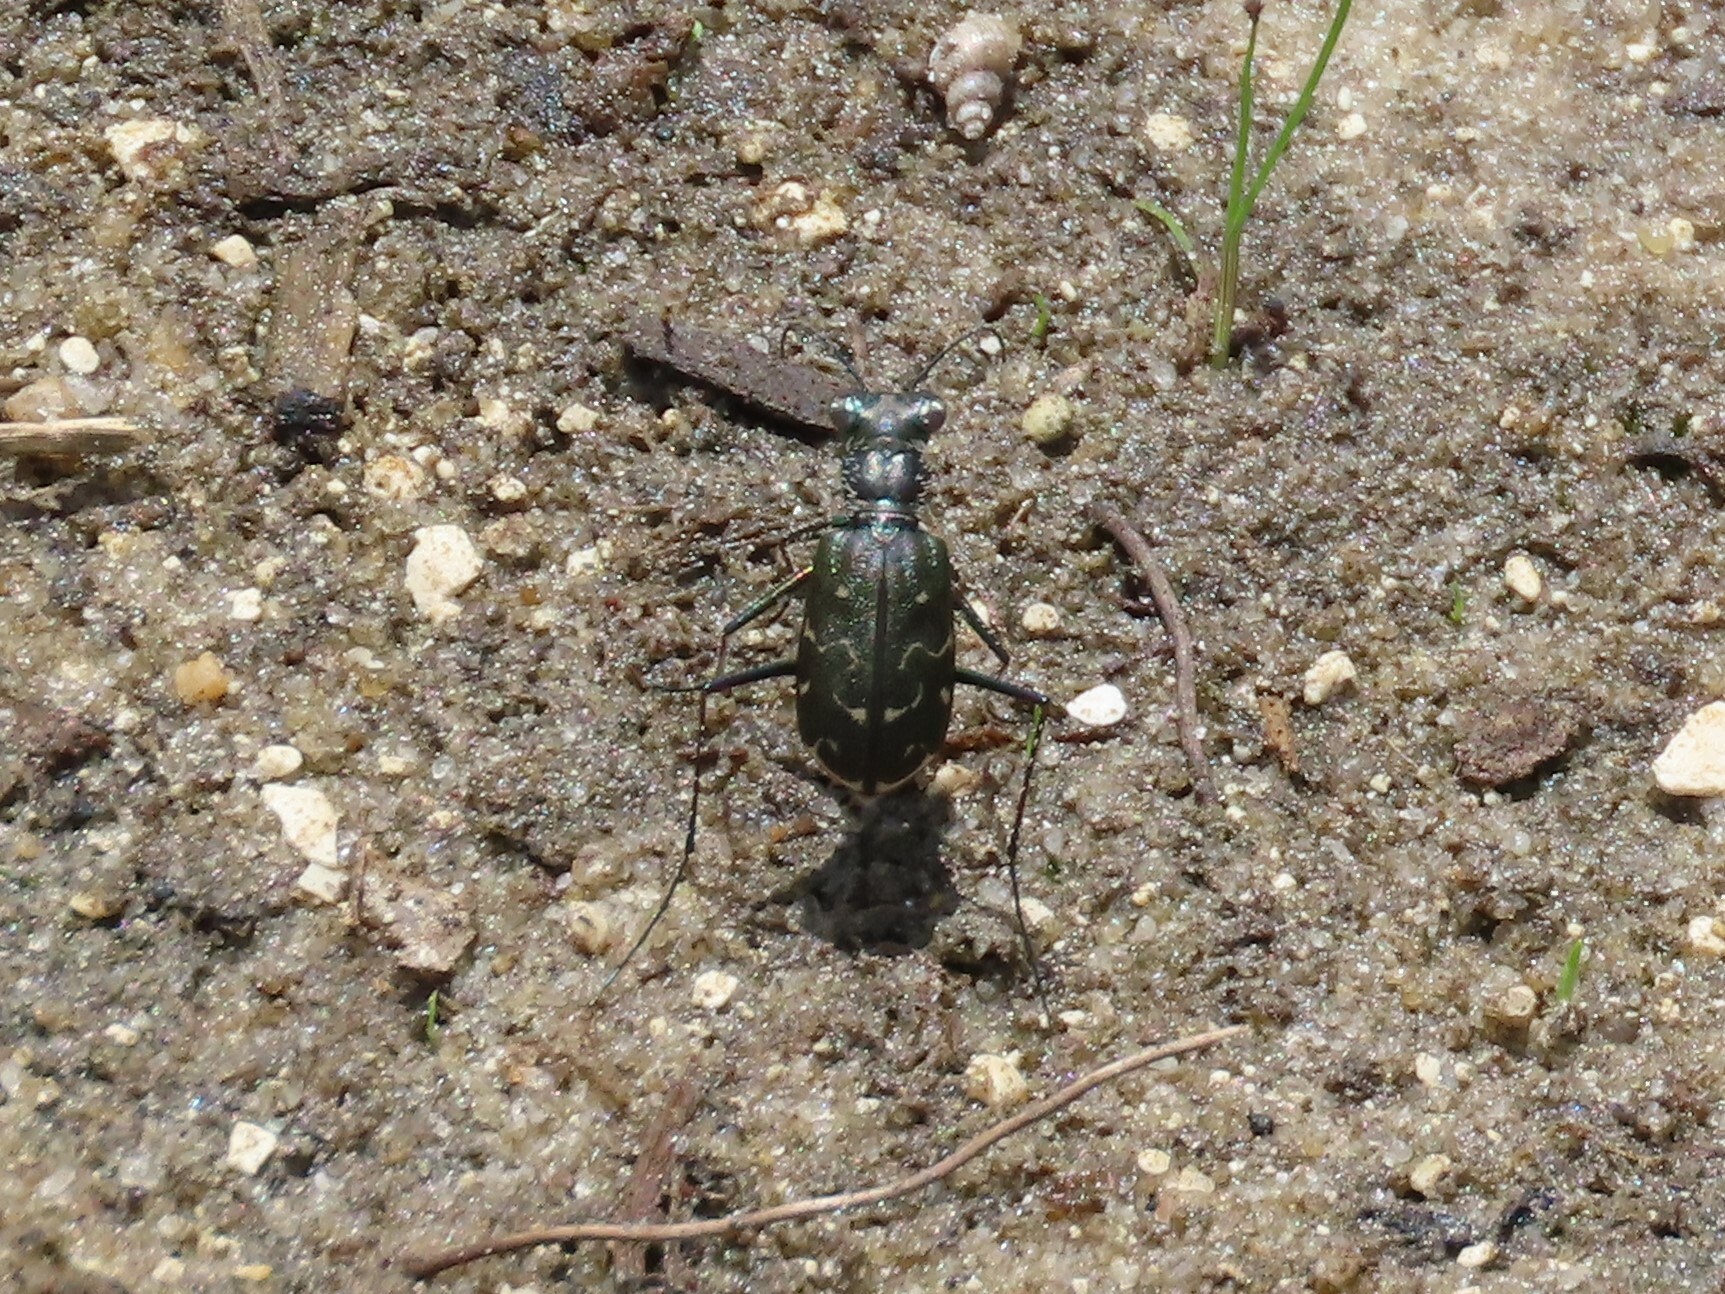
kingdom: Animalia
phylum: Arthropoda
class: Insecta
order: Coleoptera
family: Carabidae
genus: Cicindela
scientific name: Cicindela trifasciata
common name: Mudflat tiger beetle
